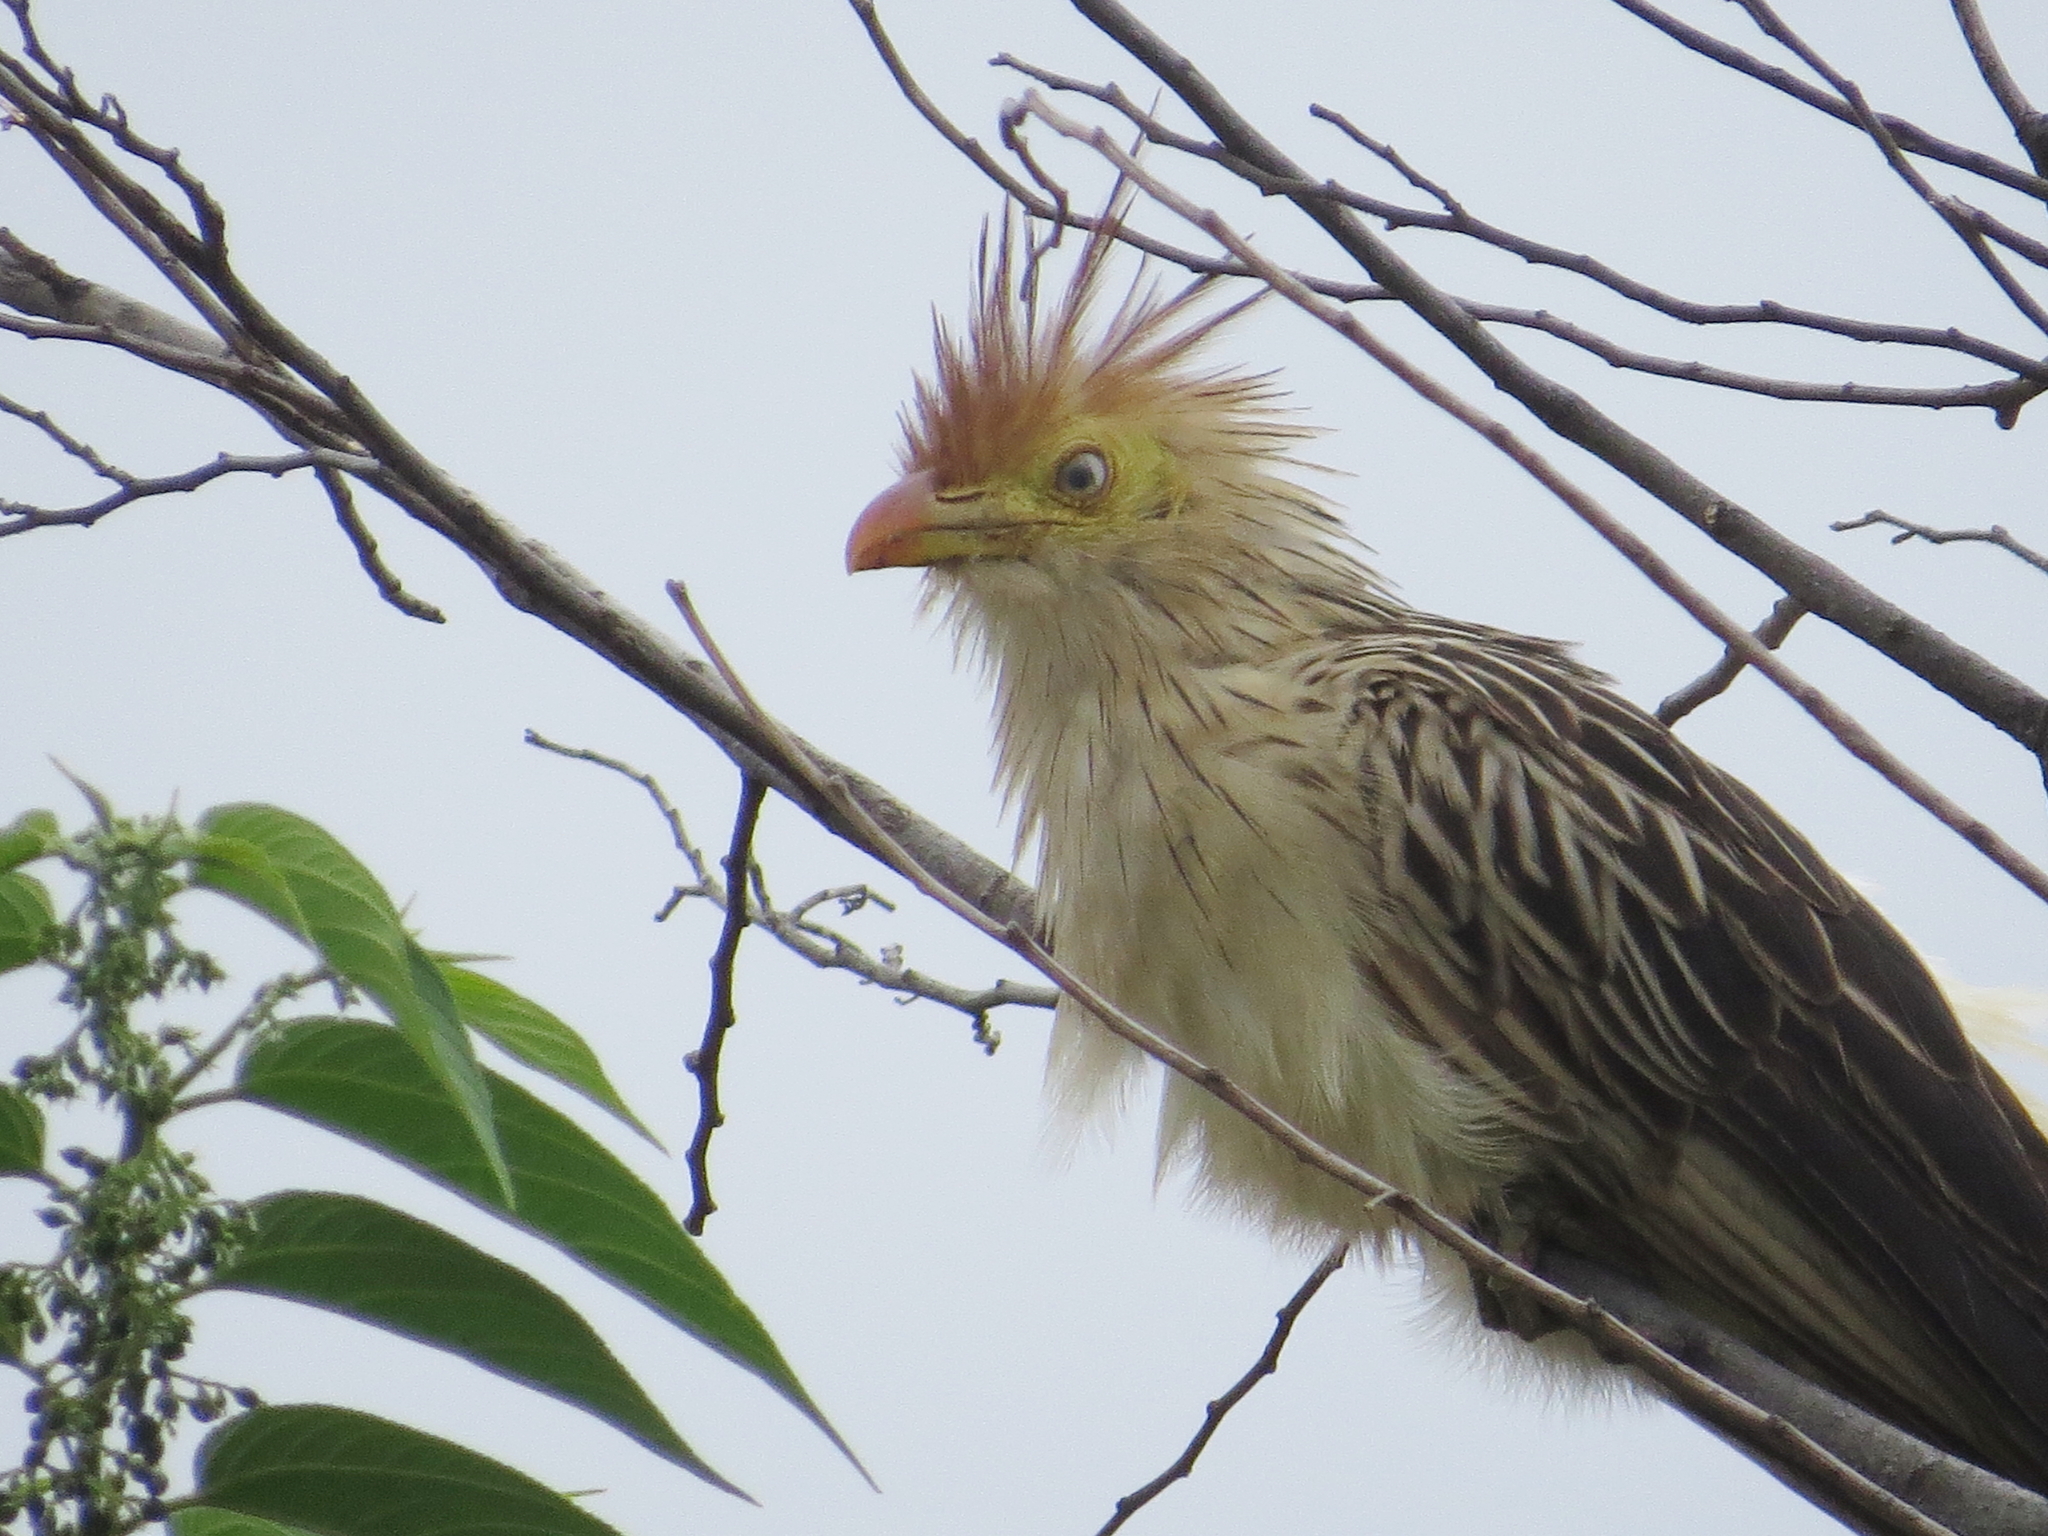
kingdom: Animalia
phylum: Chordata
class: Aves
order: Cuculiformes
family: Cuculidae
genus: Guira
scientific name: Guira guira
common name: Guira cuckoo
